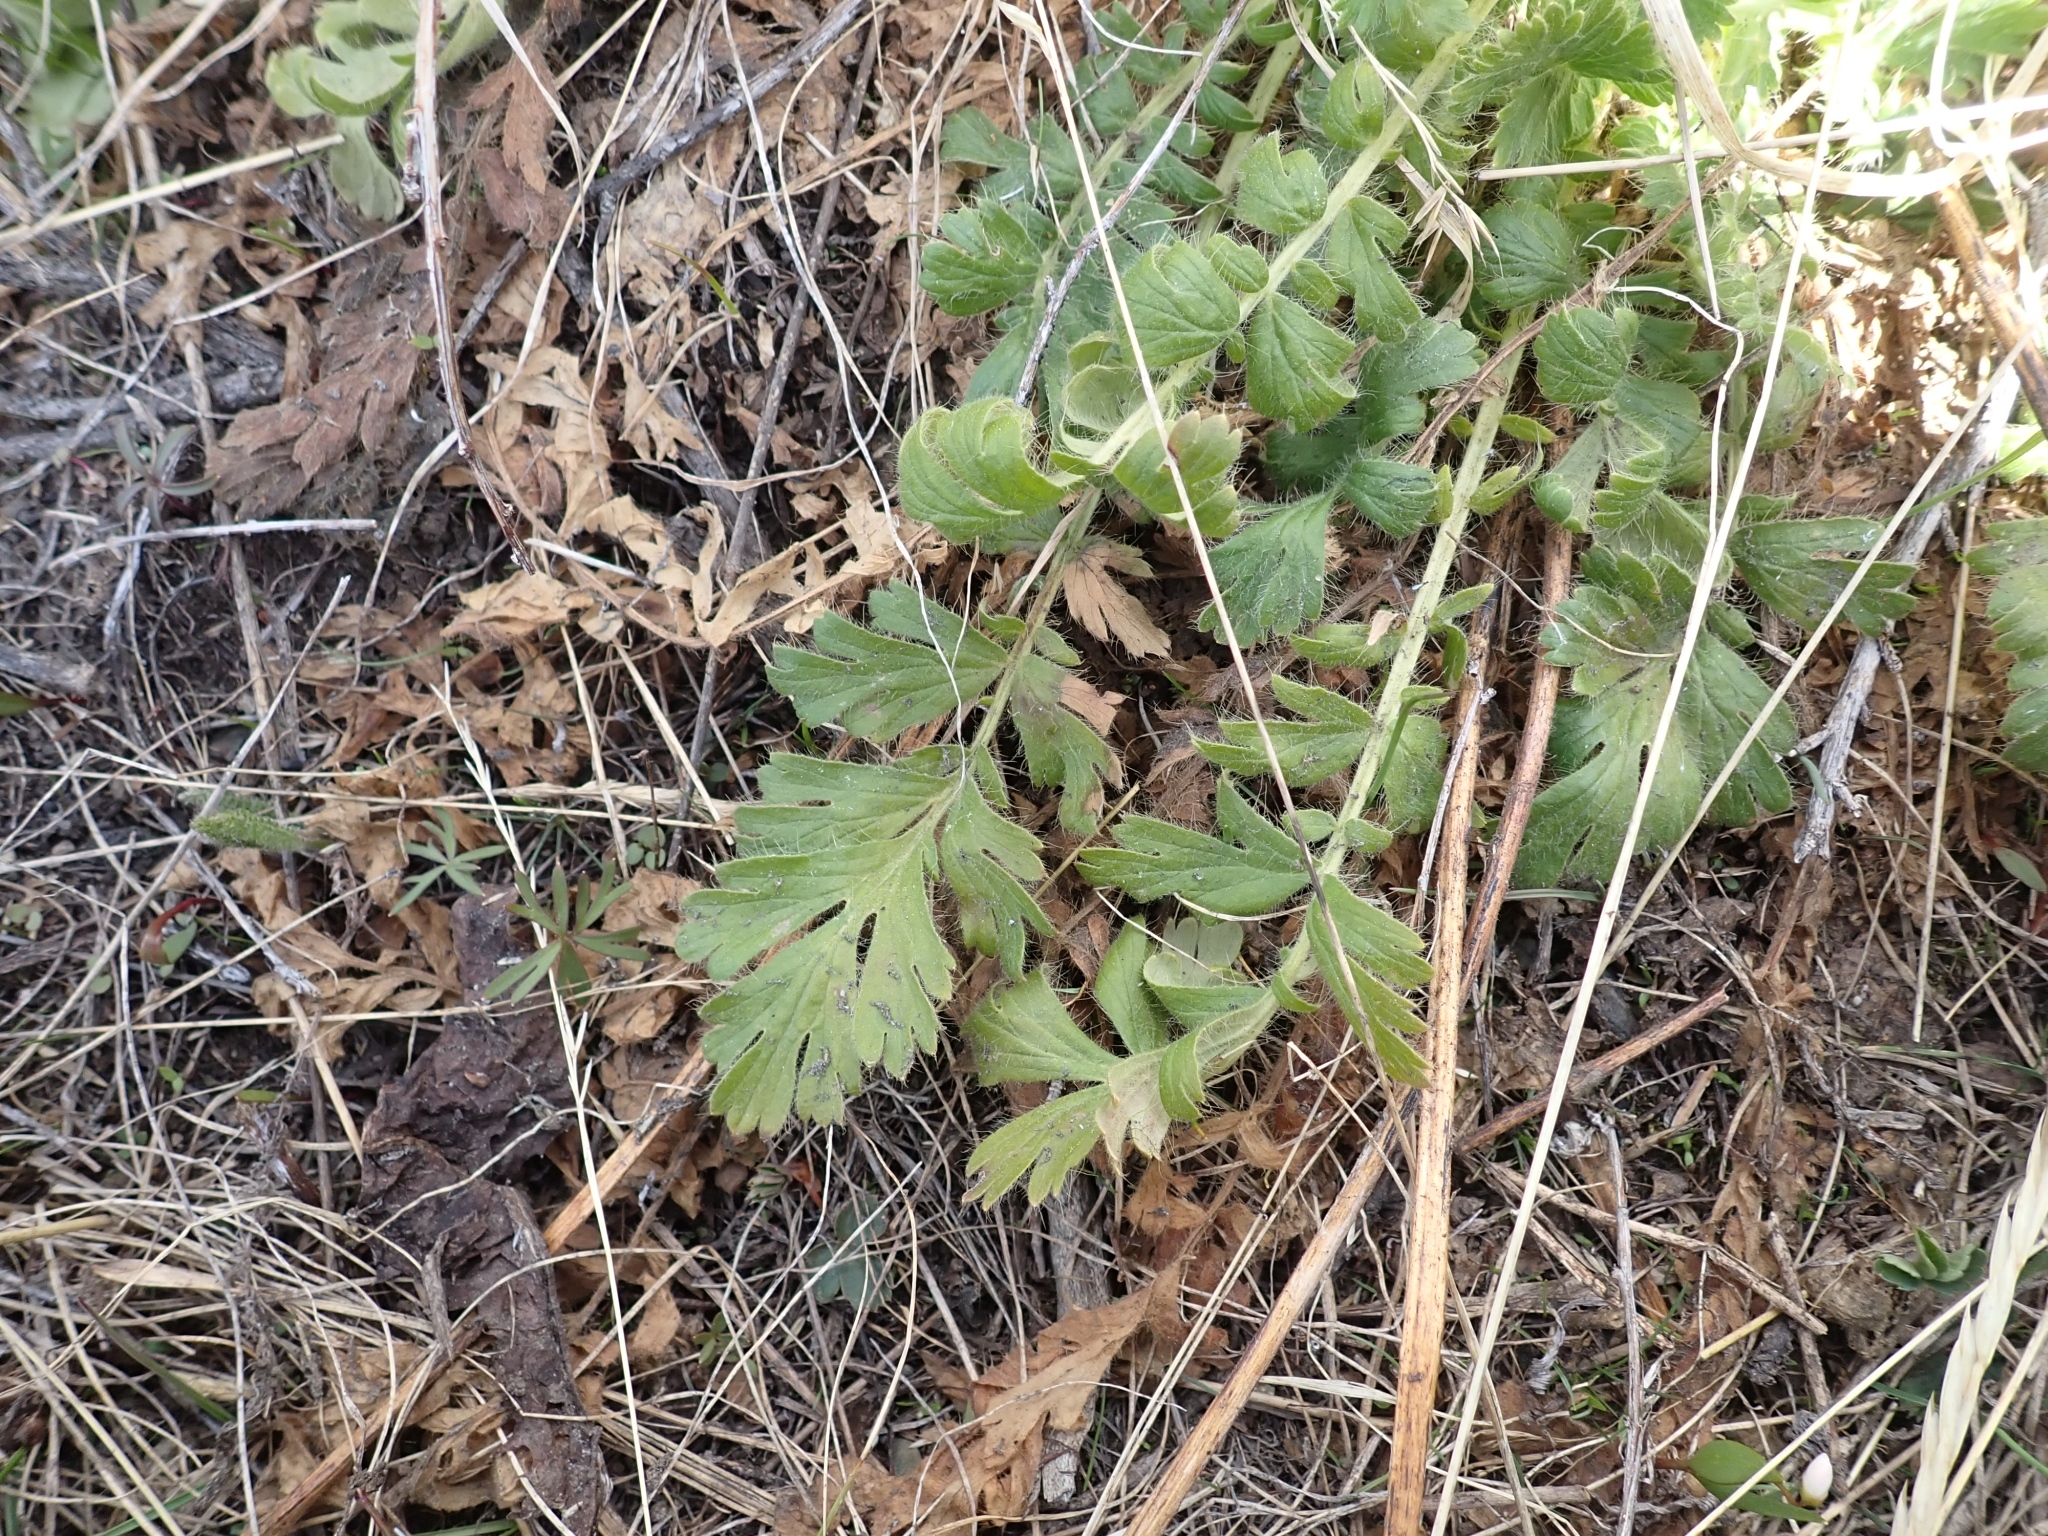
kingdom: Plantae
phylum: Tracheophyta
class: Magnoliopsida
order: Rosales
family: Rosaceae
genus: Geum
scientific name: Geum triflorum
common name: Old man's whiskers
